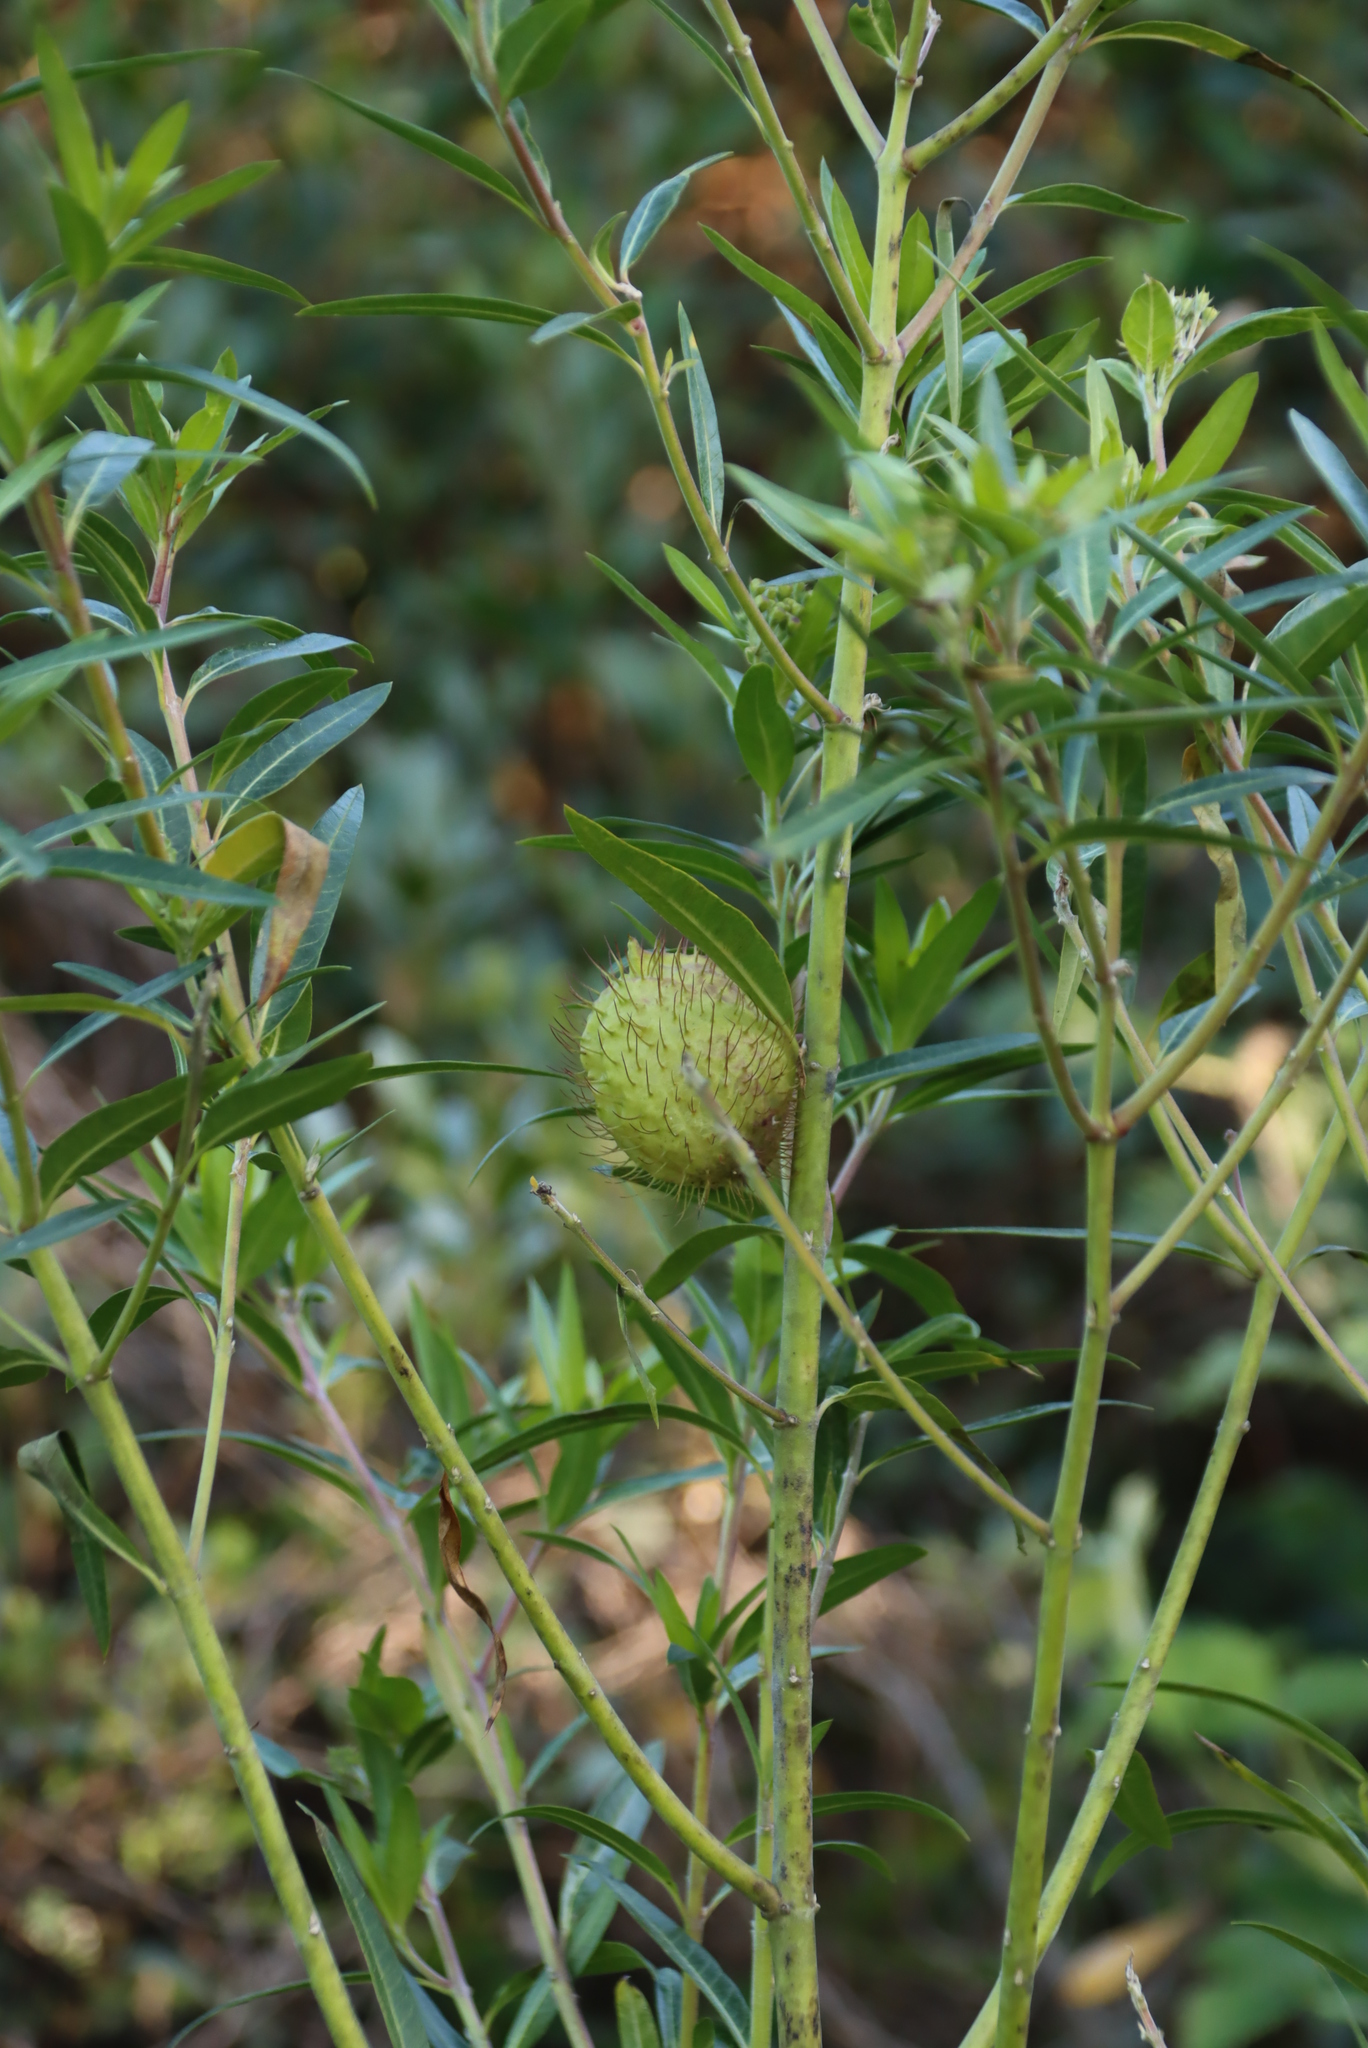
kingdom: Plantae
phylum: Tracheophyta
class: Magnoliopsida
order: Gentianales
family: Apocynaceae
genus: Gomphocarpus
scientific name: Gomphocarpus physocarpus
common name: Balloon cotton bush
